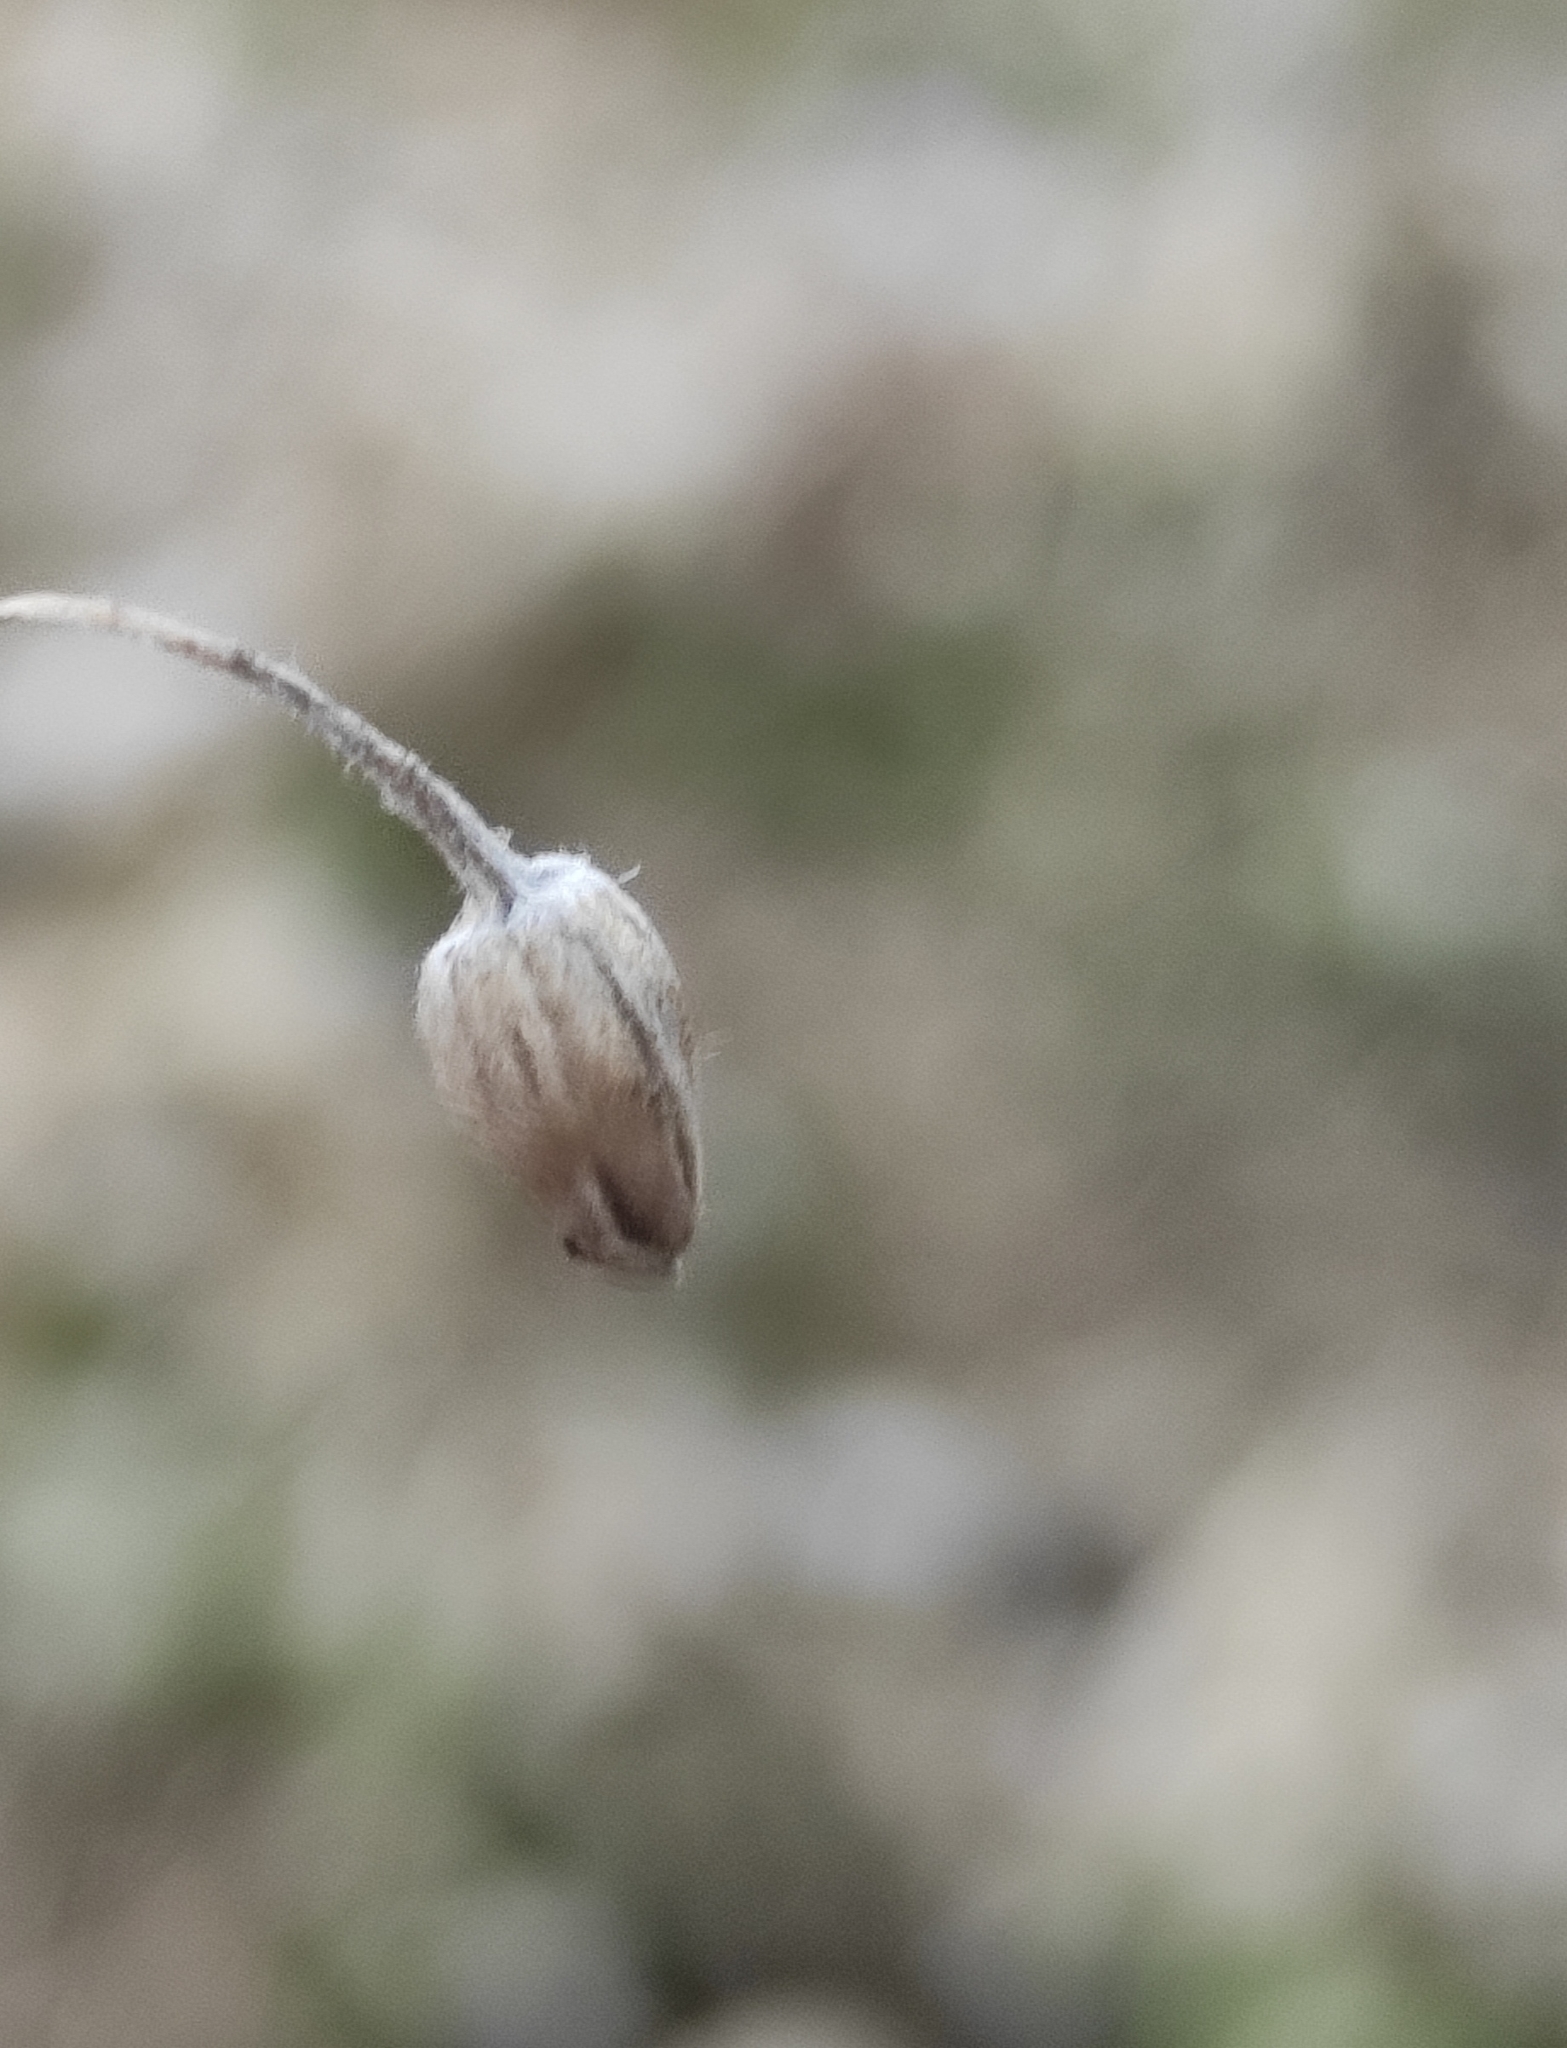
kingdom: Plantae
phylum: Tracheophyta
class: Magnoliopsida
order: Caryophyllales
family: Caryophyllaceae
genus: Stellaria
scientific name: Stellaria radians
